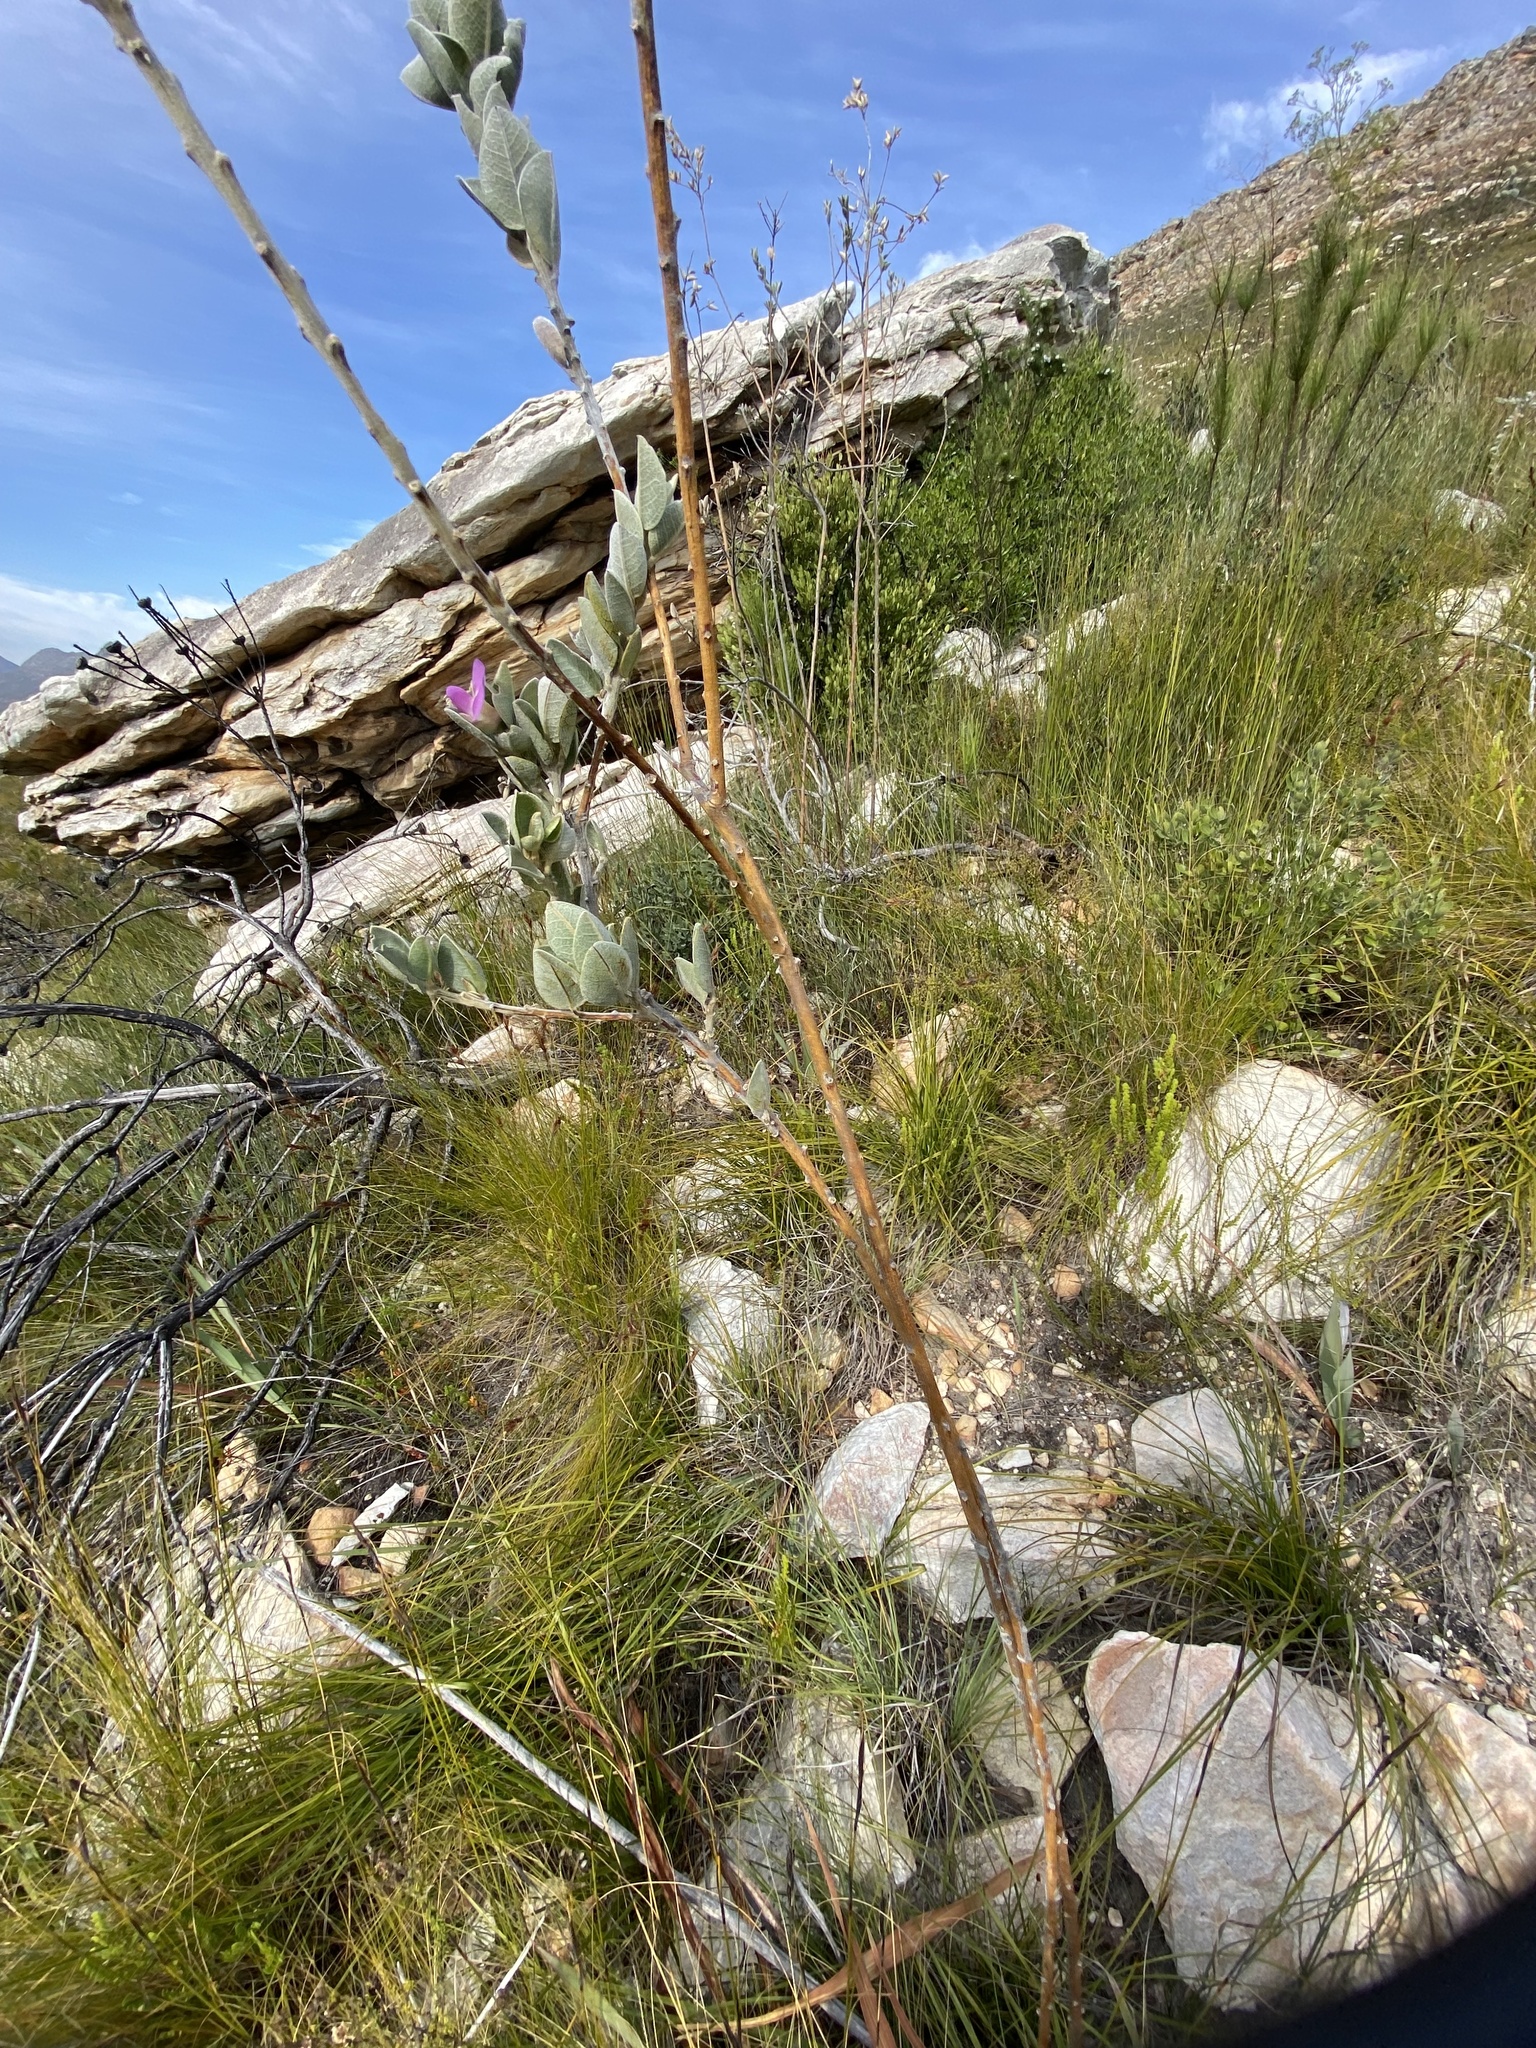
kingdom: Plantae
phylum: Tracheophyta
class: Magnoliopsida
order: Fabales
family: Fabaceae
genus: Podalyria
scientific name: Podalyria burchellii
